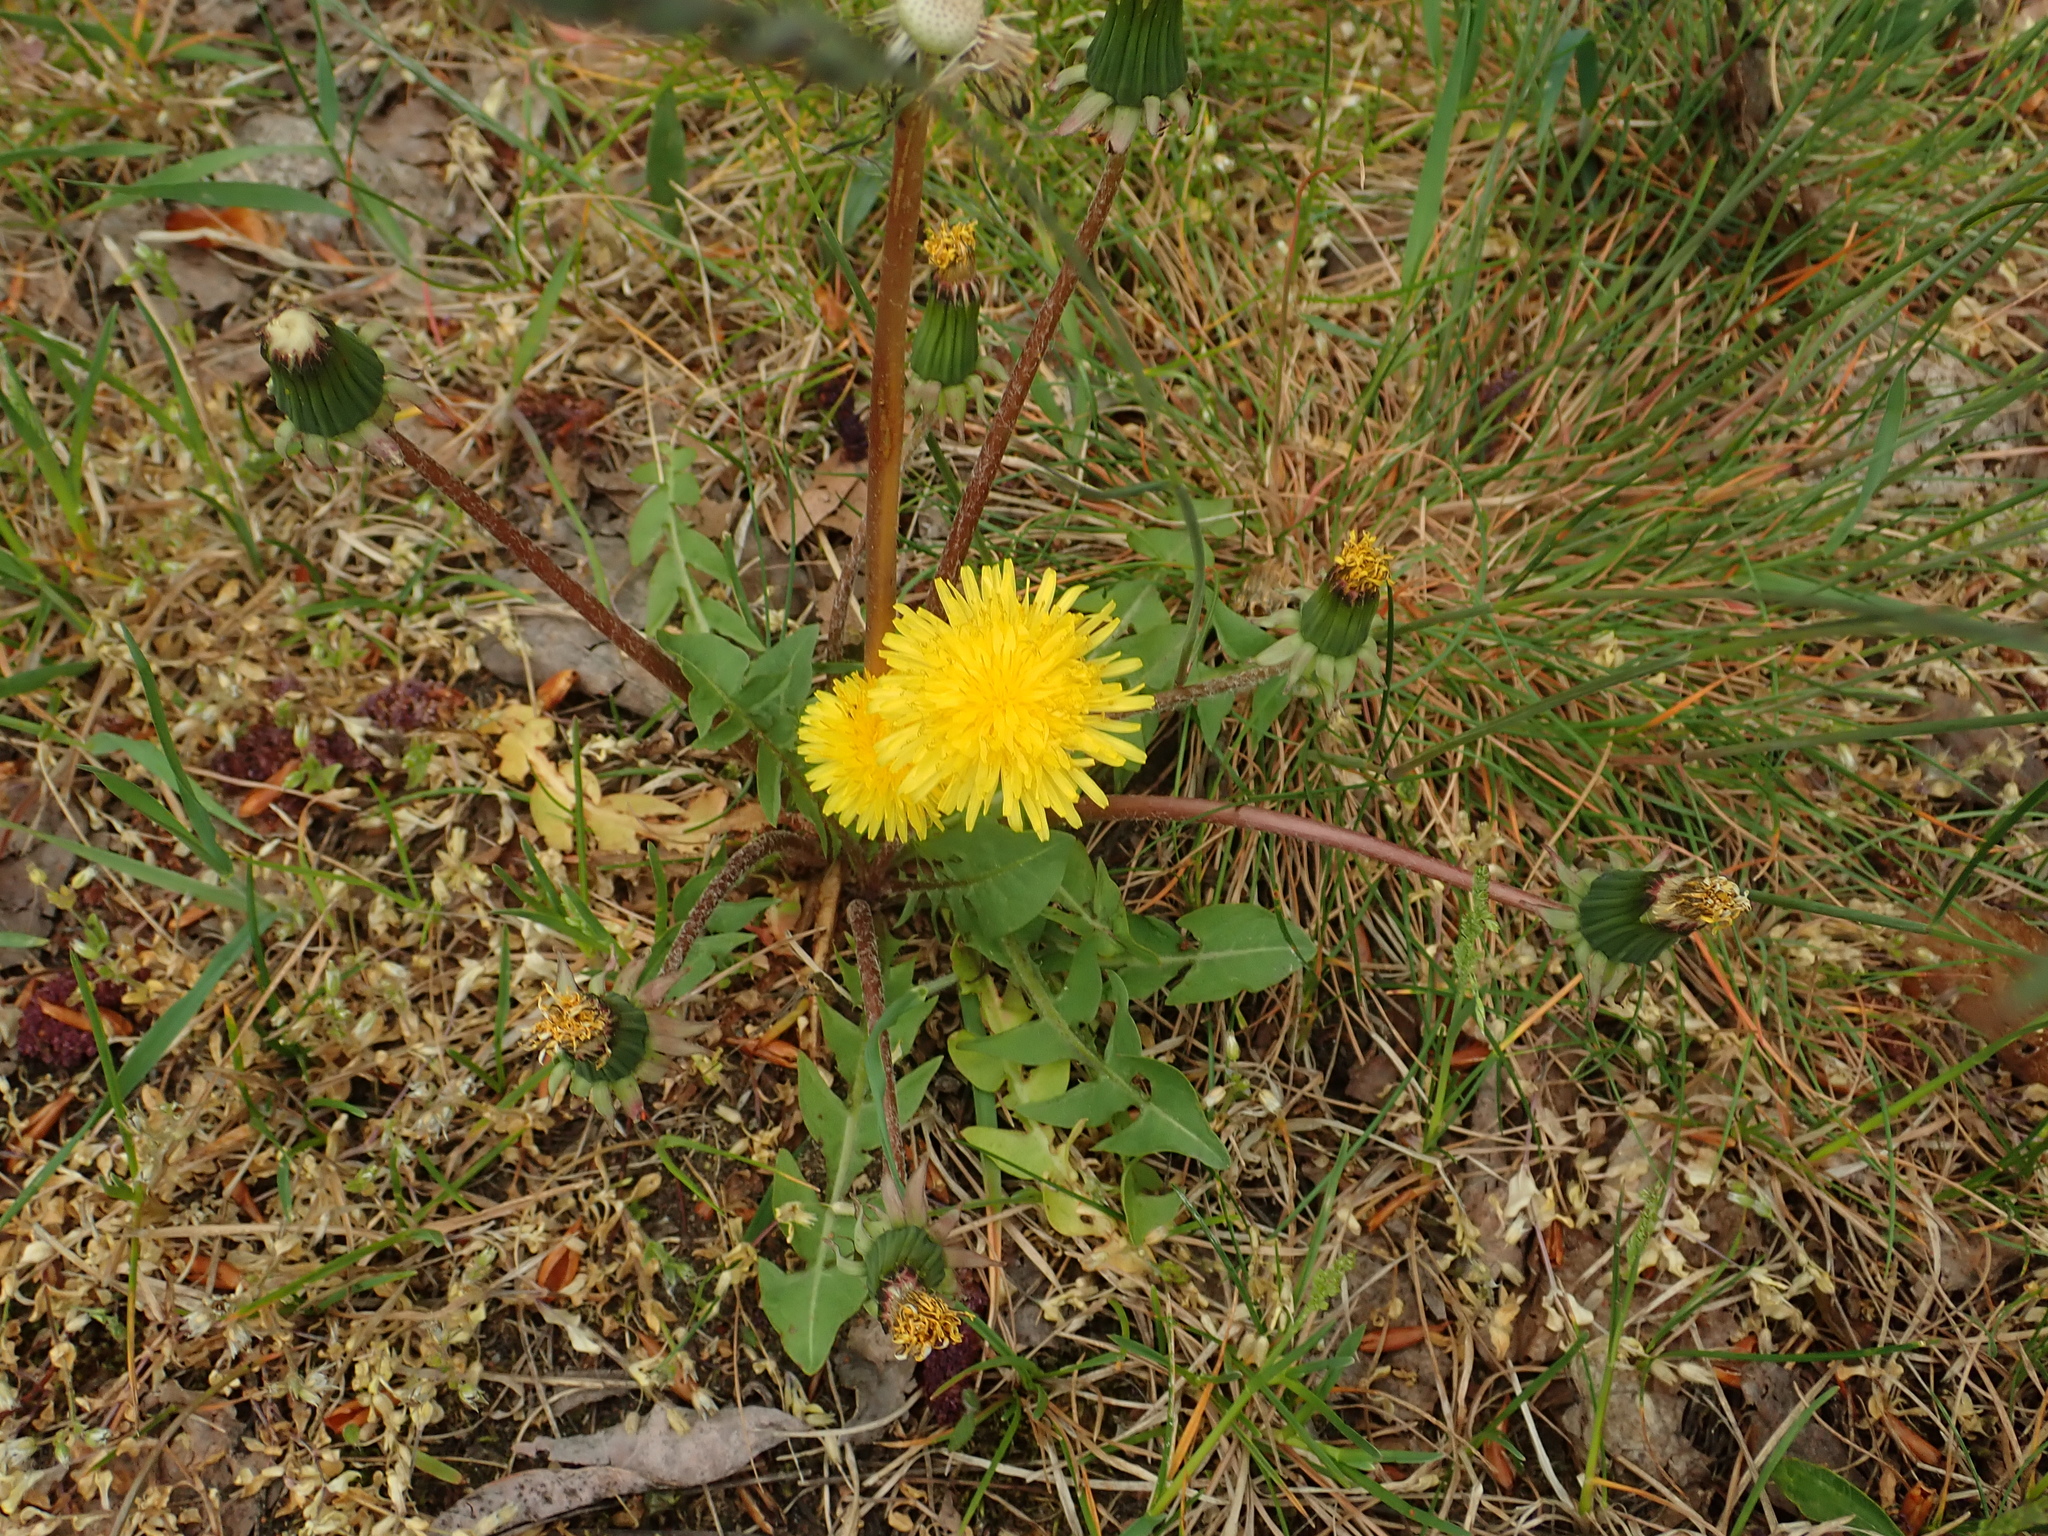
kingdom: Plantae
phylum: Tracheophyta
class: Magnoliopsida
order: Asterales
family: Asteraceae
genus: Taraxacum
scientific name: Taraxacum officinale
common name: Common dandelion
